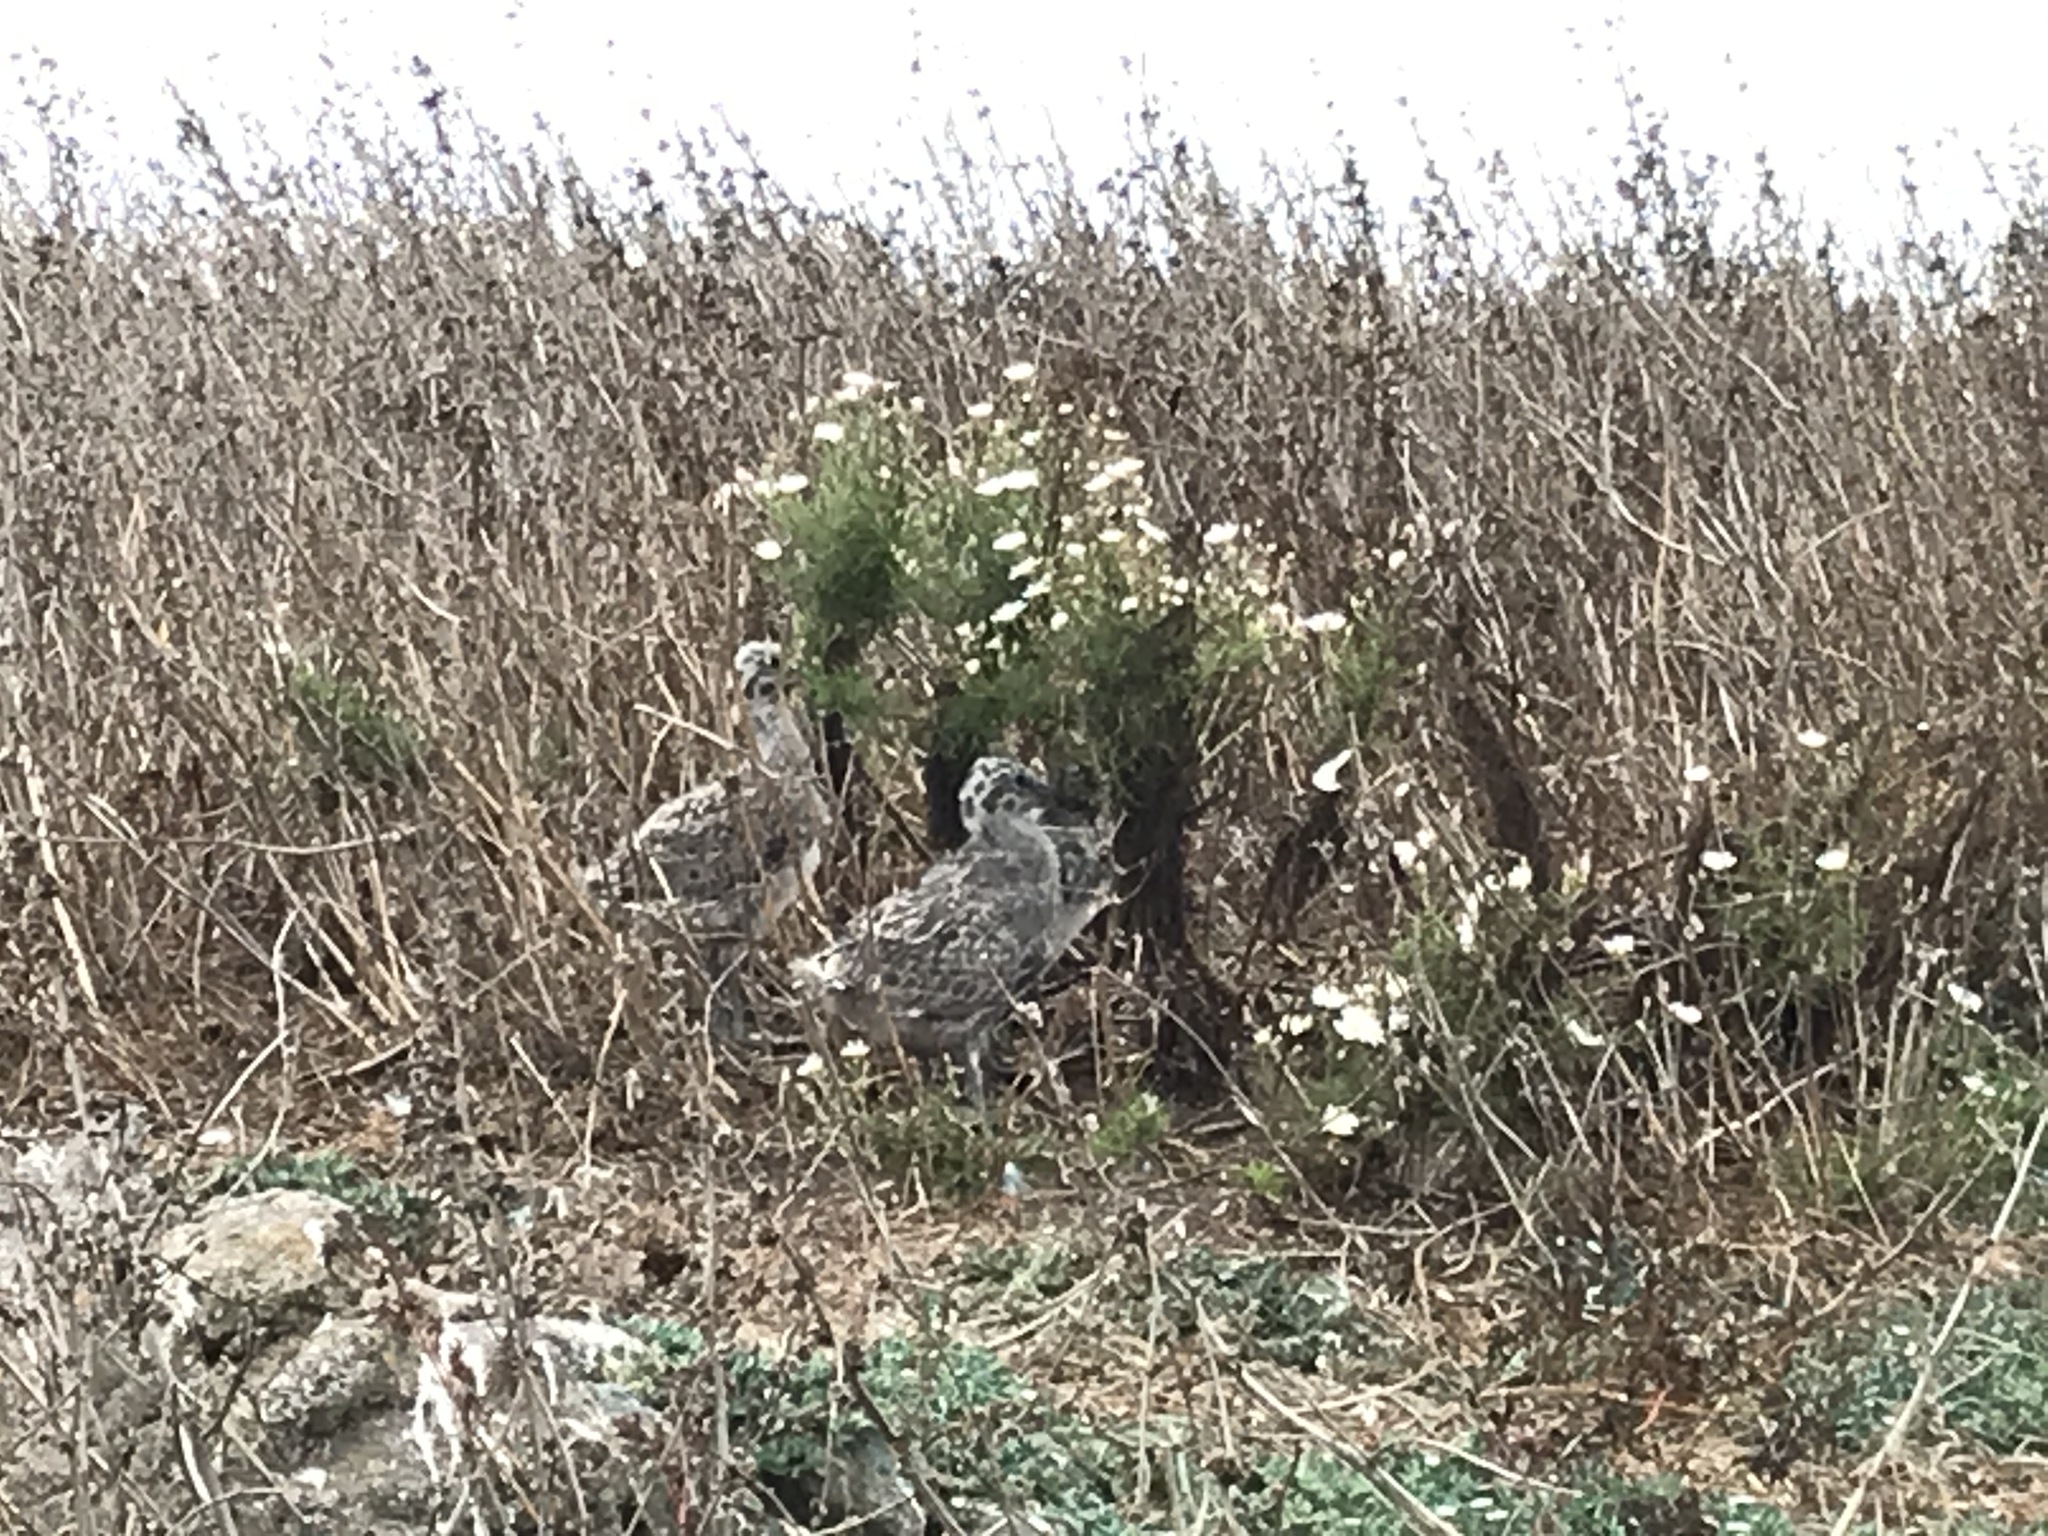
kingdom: Animalia
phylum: Chordata
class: Aves
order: Charadriiformes
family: Laridae
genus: Larus
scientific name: Larus occidentalis
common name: Western gull
